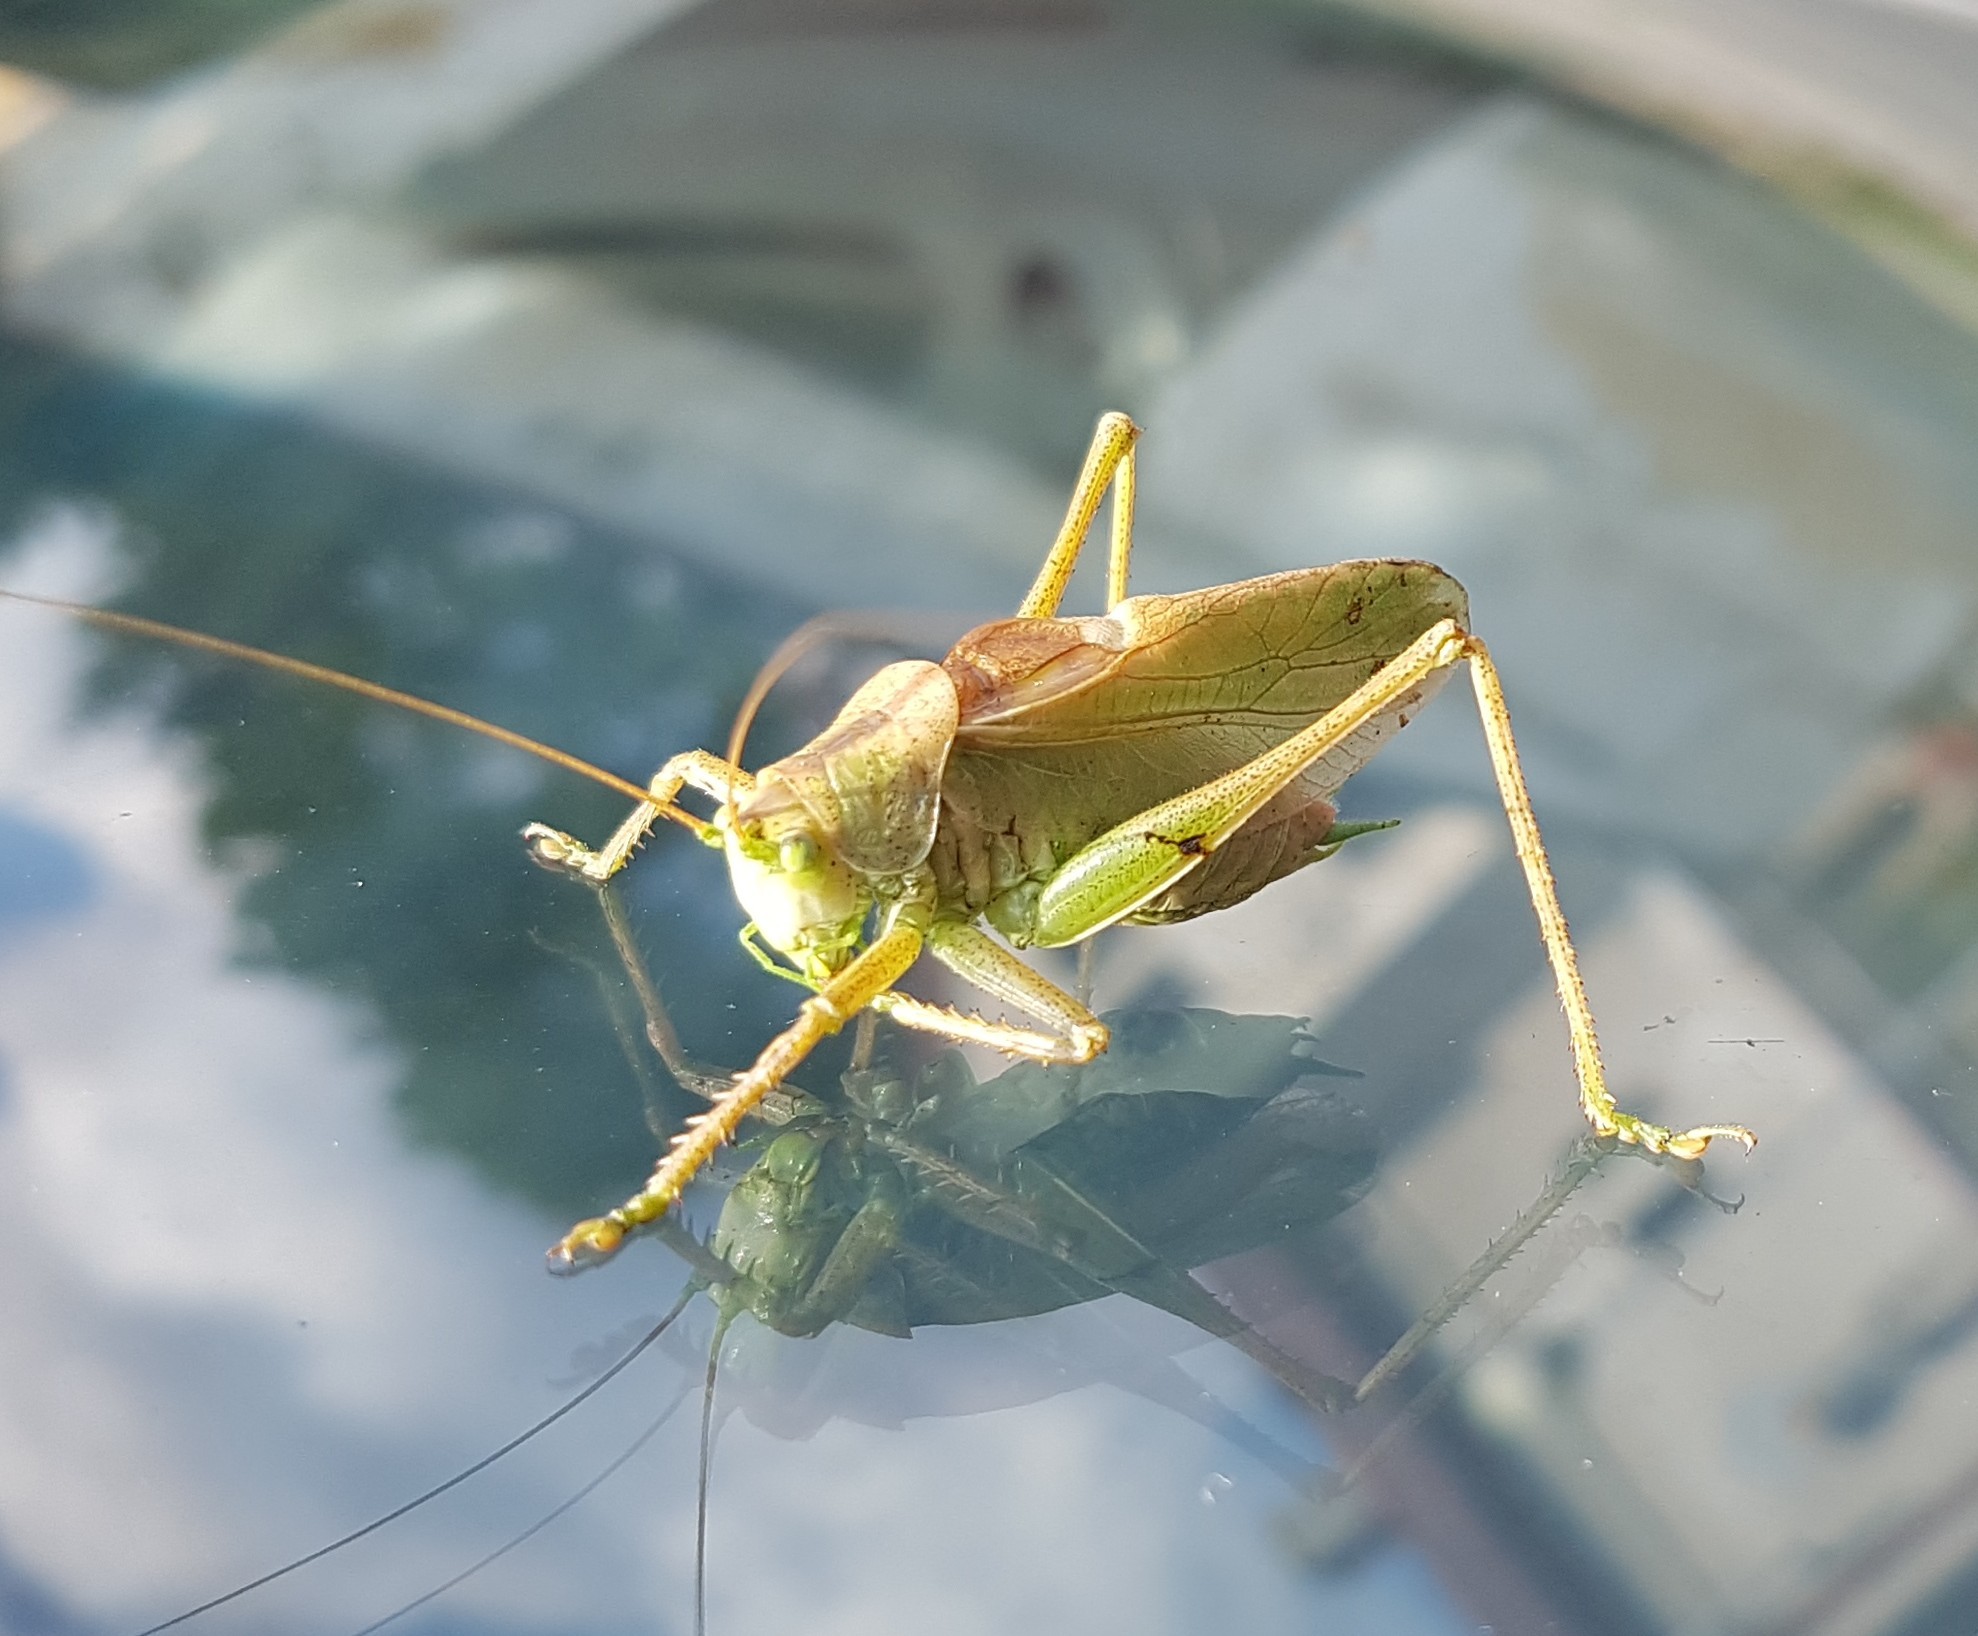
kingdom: Animalia
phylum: Arthropoda
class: Insecta
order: Orthoptera
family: Tettigoniidae
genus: Tettigonia
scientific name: Tettigonia cantans
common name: Upland green bush-cricket
